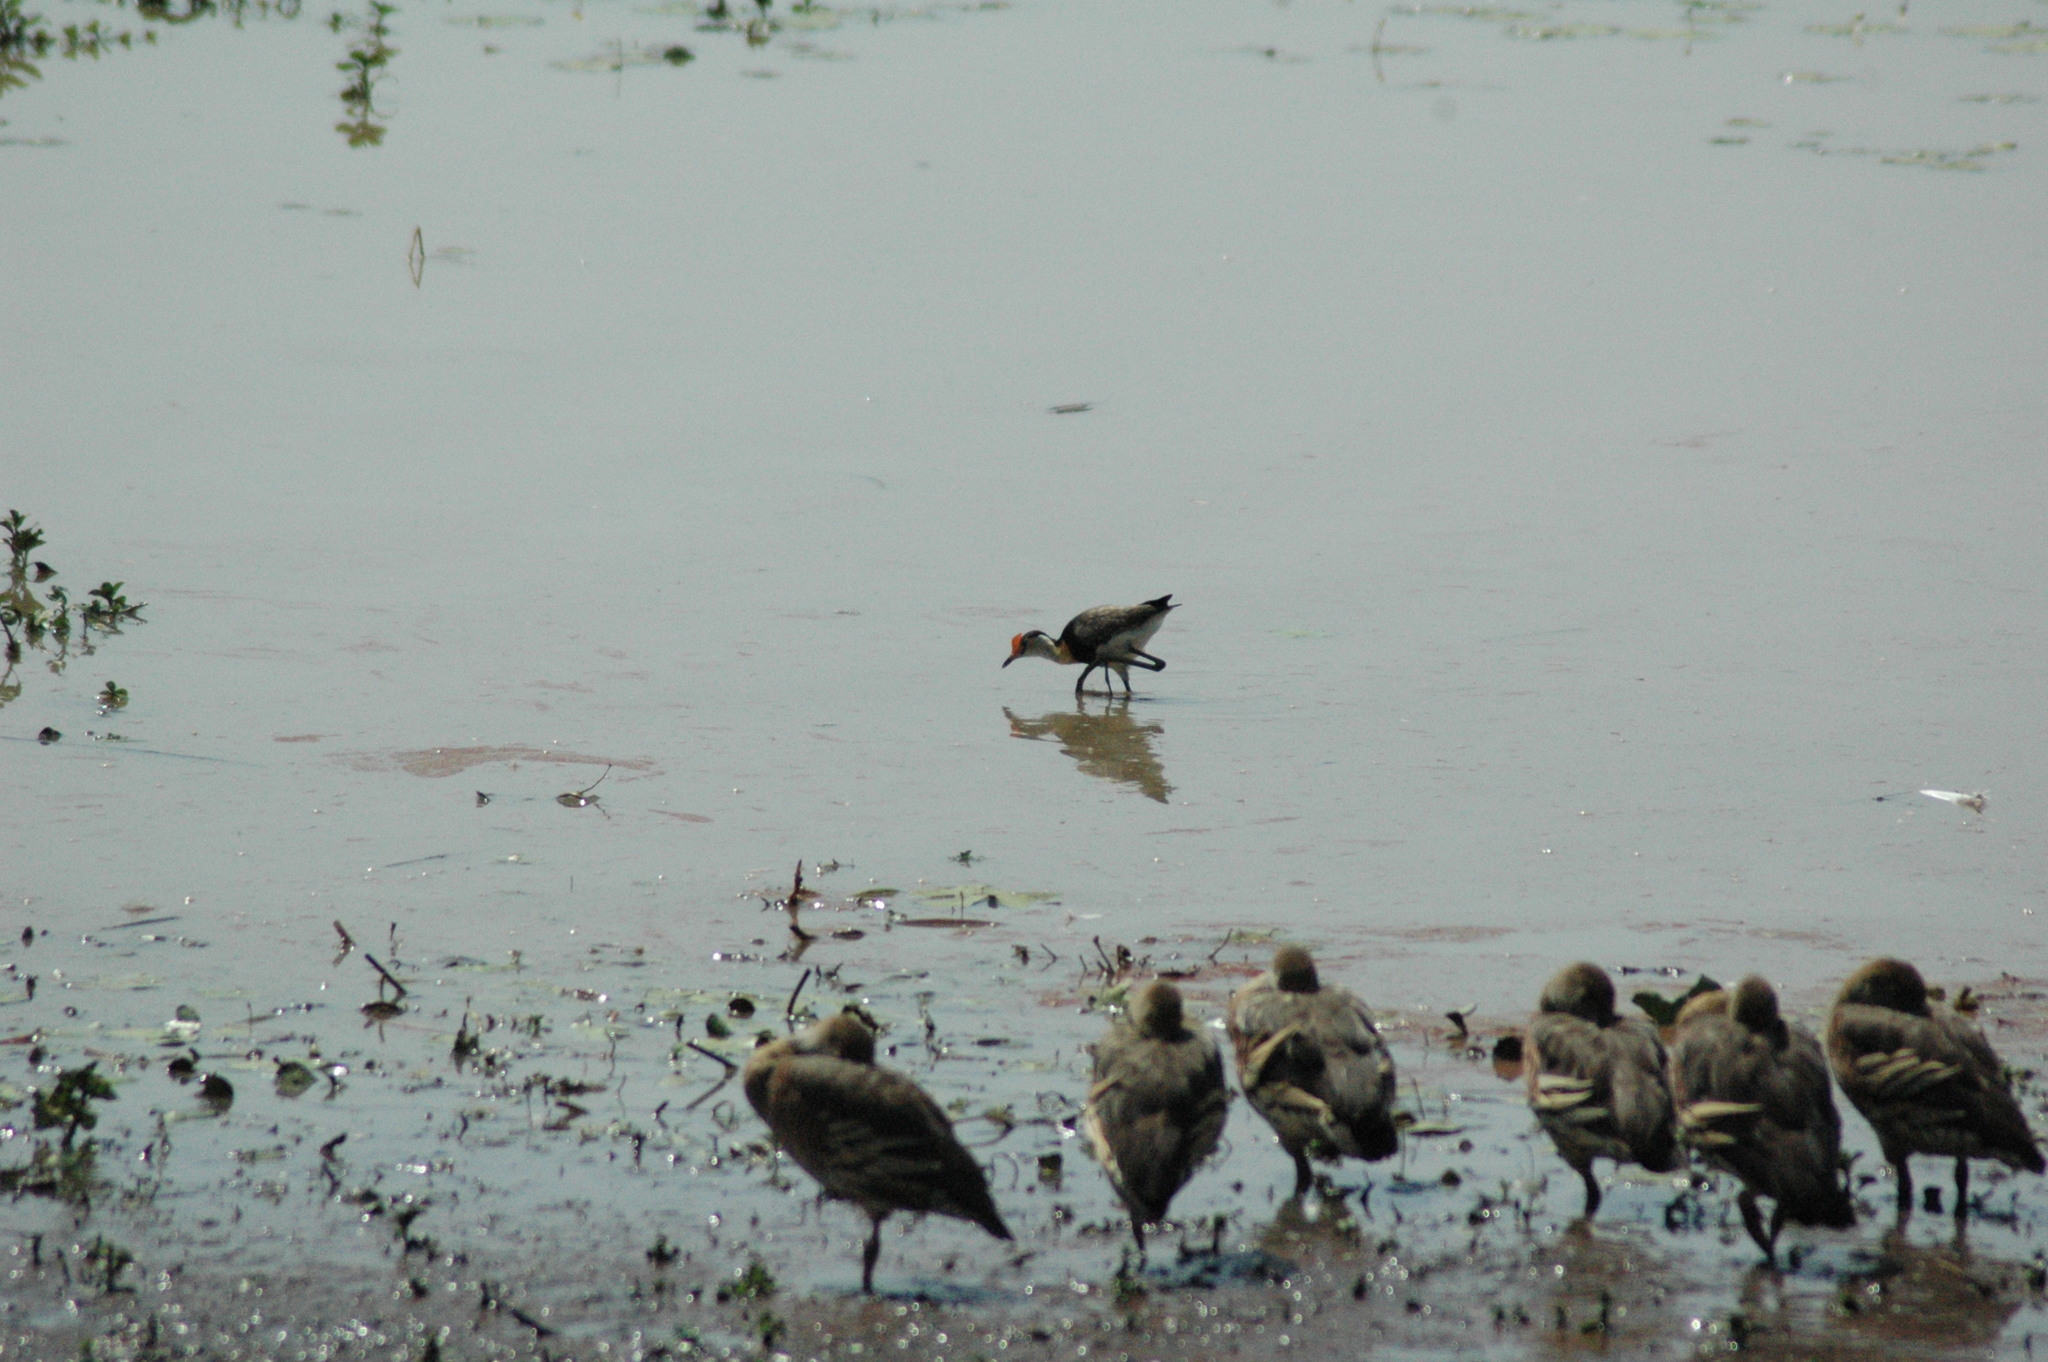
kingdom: Animalia
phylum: Chordata
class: Aves
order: Charadriiformes
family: Jacanidae
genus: Irediparra
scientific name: Irediparra gallinacea
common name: Comb-crested jacana
